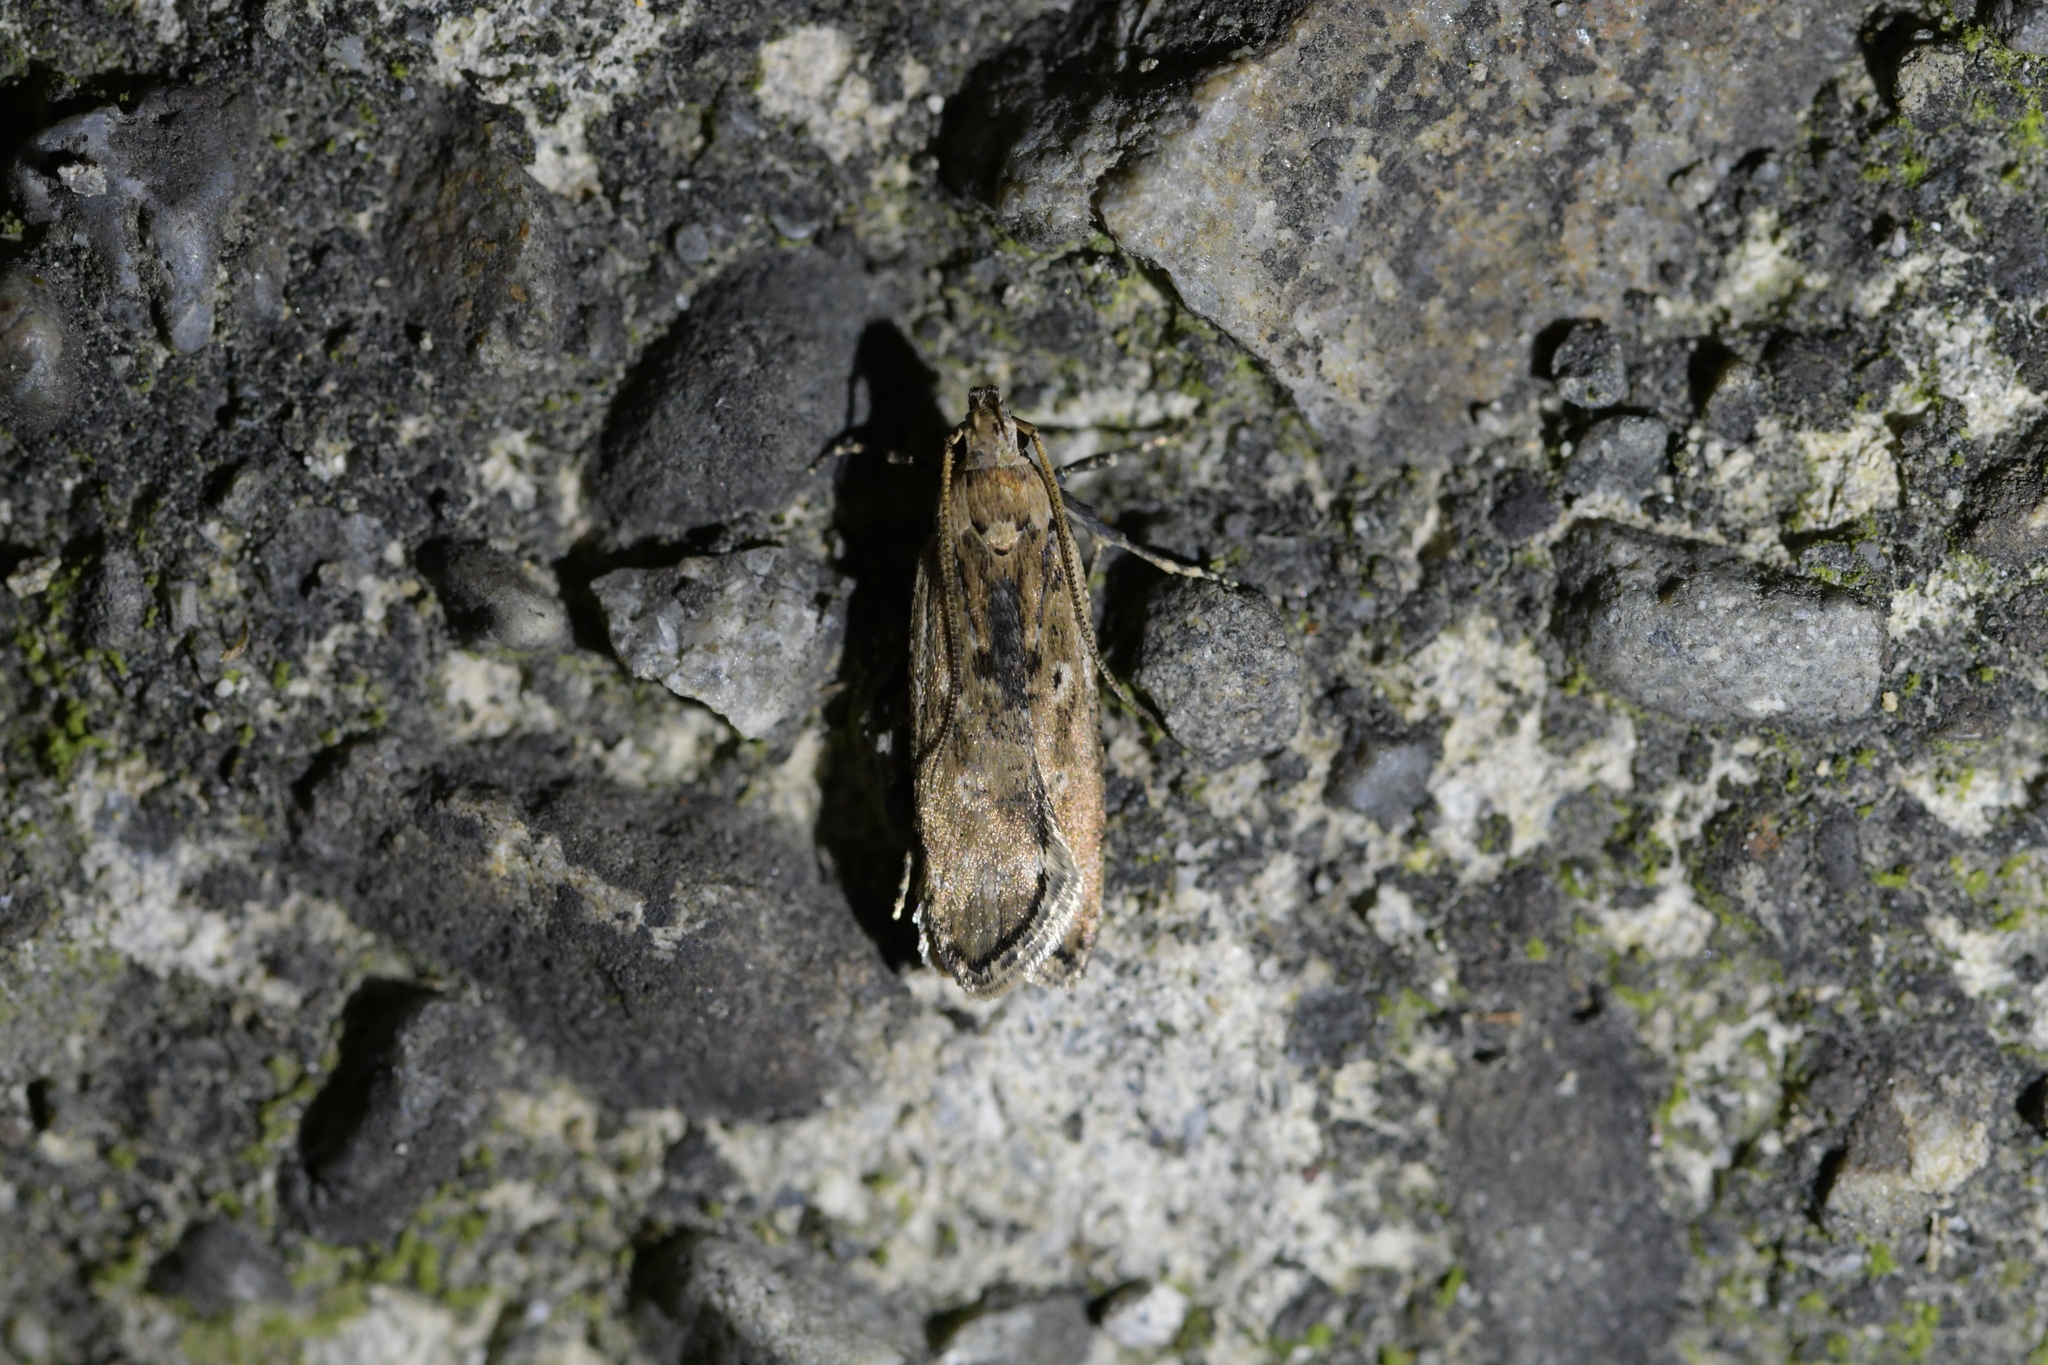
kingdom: Animalia
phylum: Arthropoda
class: Insecta
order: Lepidoptera
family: Gelechiidae
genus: Anisoplaca
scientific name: Anisoplaca achyrota
